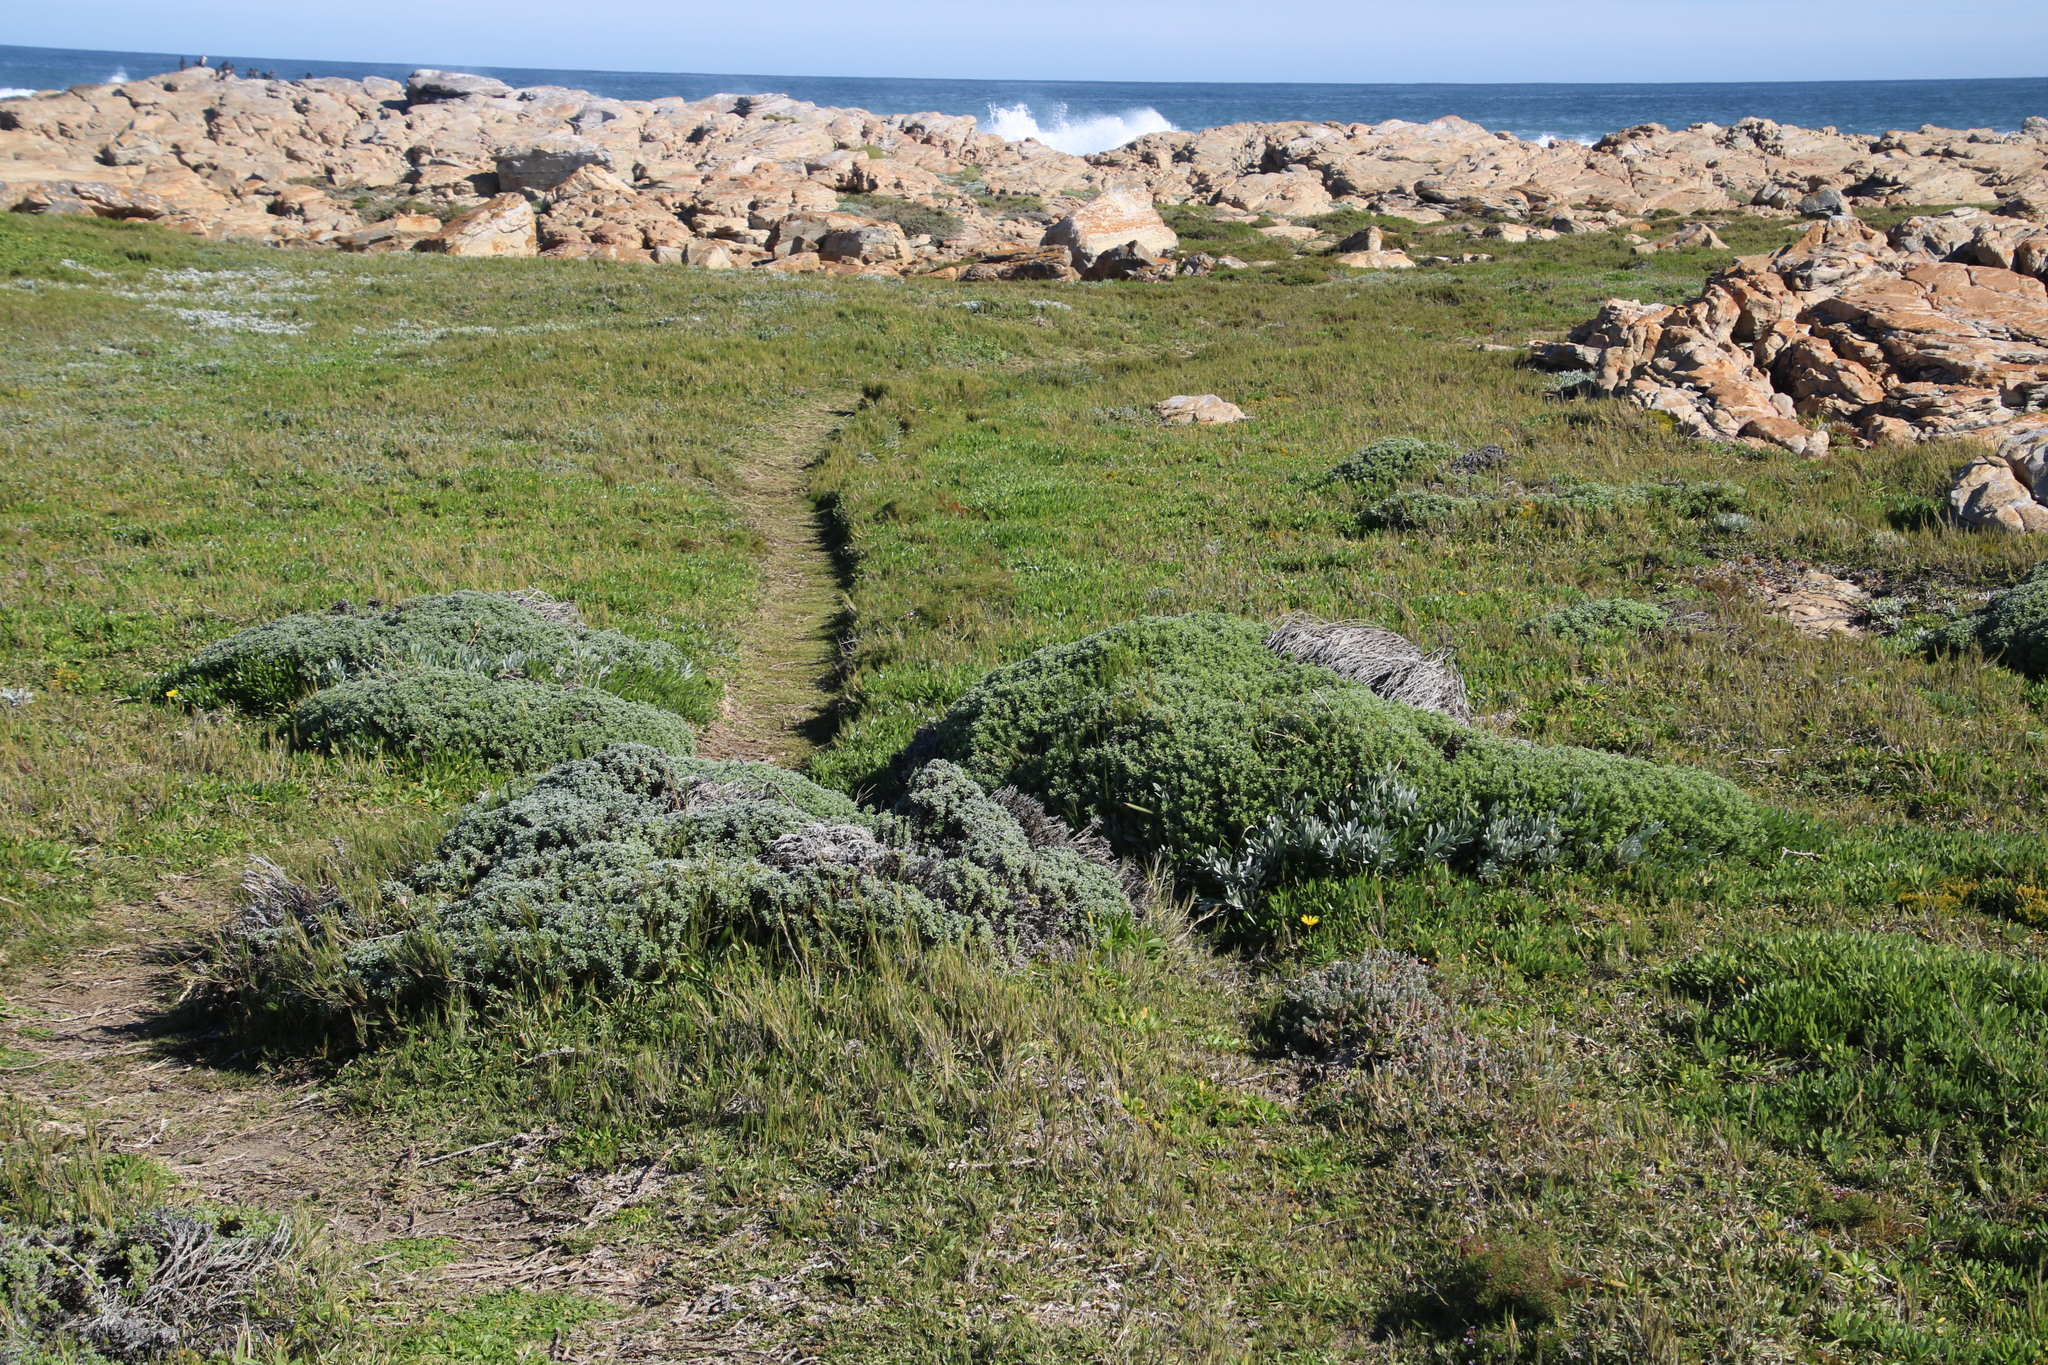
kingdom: Plantae
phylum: Tracheophyta
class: Magnoliopsida
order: Asterales
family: Asteraceae
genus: Achyranthemum
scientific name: Achyranthemum sordescens
